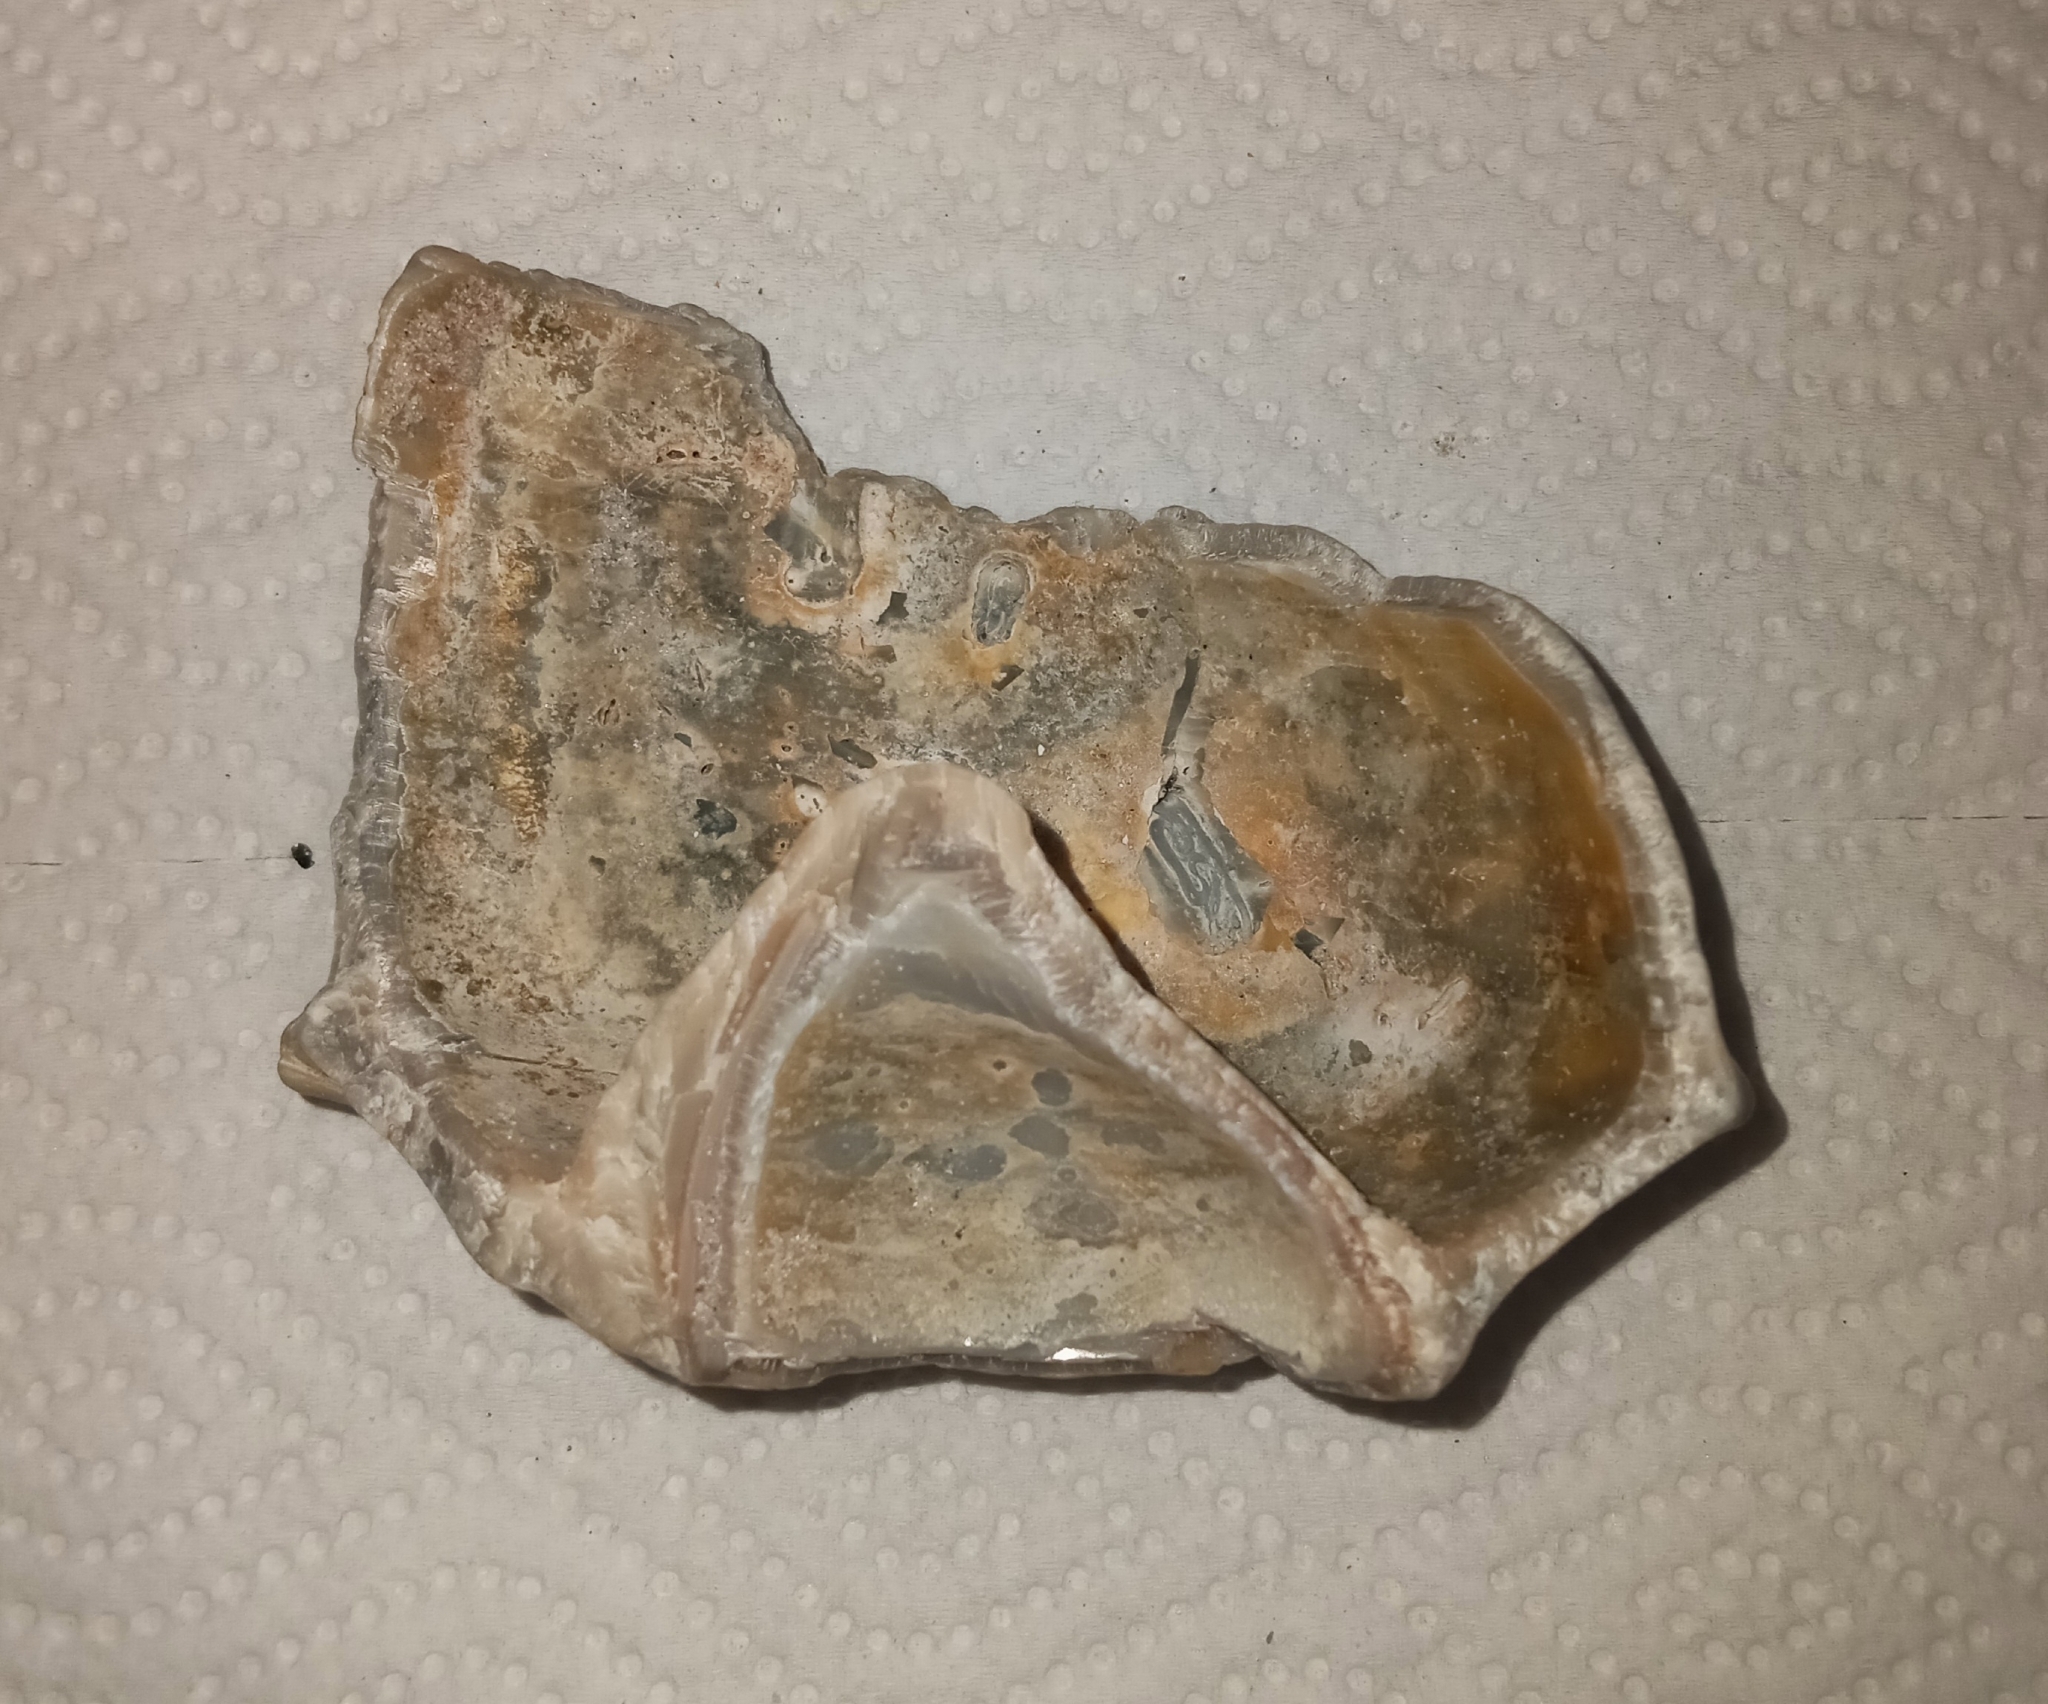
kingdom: Animalia
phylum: Mollusca
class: Gastropoda
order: Neogastropoda
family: Busyconidae
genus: Busycon
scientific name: Busycon carica
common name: Knobbed whelk
